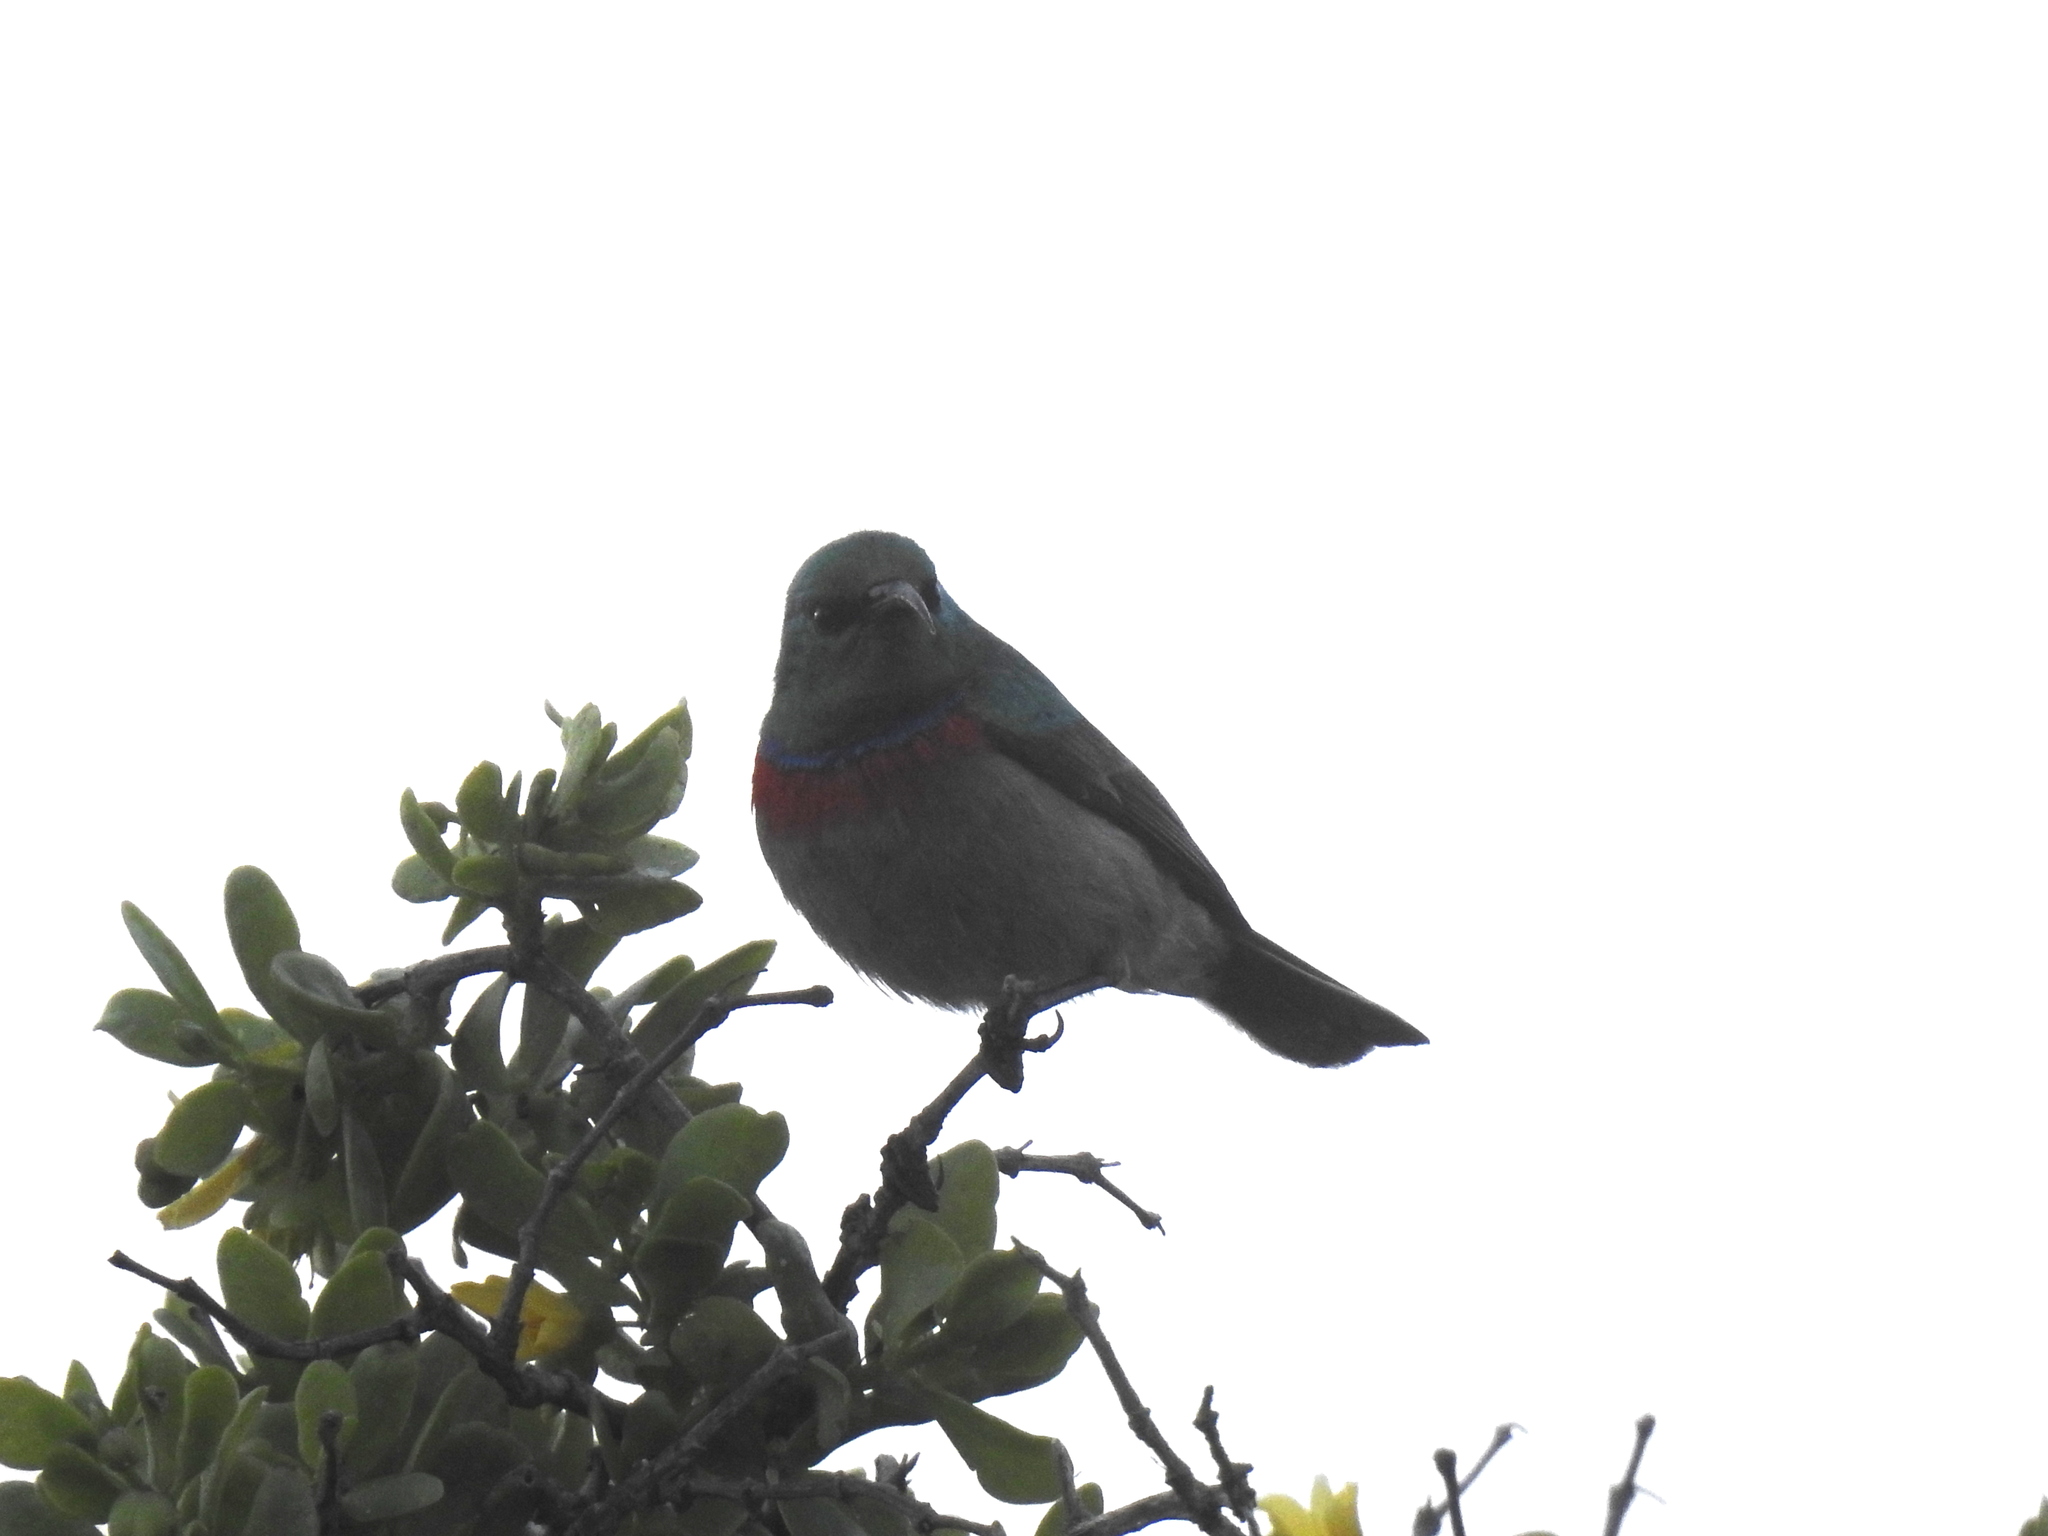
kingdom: Animalia
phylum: Chordata
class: Aves
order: Passeriformes
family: Nectariniidae
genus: Cinnyris
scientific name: Cinnyris chalybeus
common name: Southern double-collared sunbird
